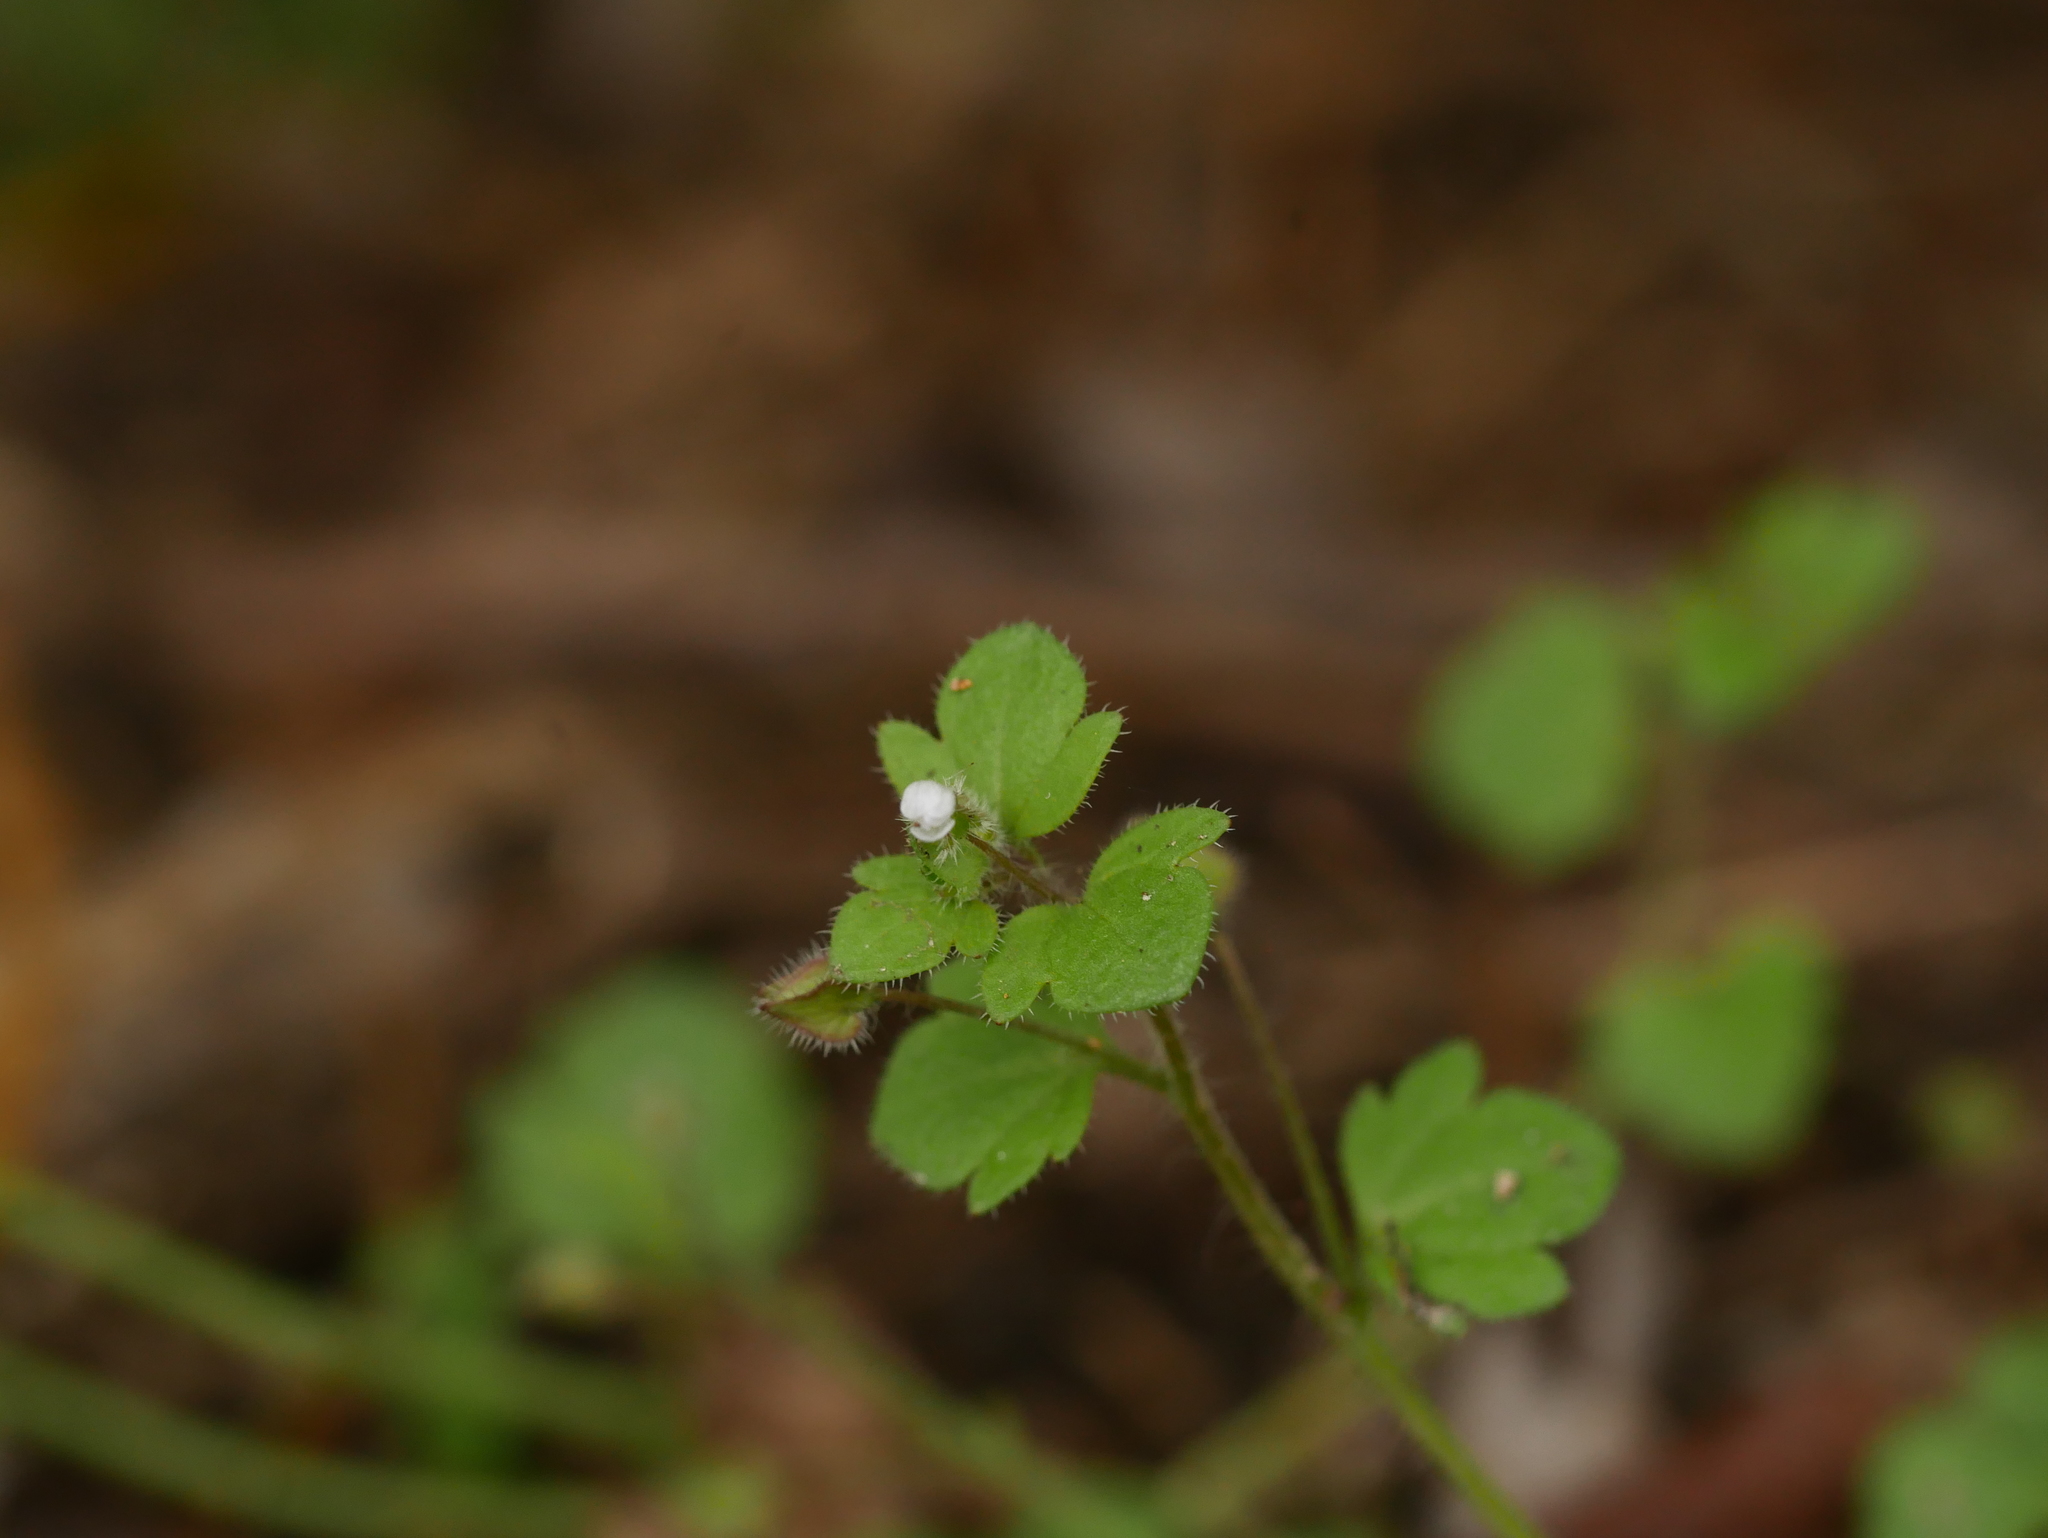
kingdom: Plantae
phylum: Tracheophyta
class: Magnoliopsida
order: Lamiales
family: Plantaginaceae
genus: Veronica
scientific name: Veronica sublobata
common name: False ivy-leaved speedwell
